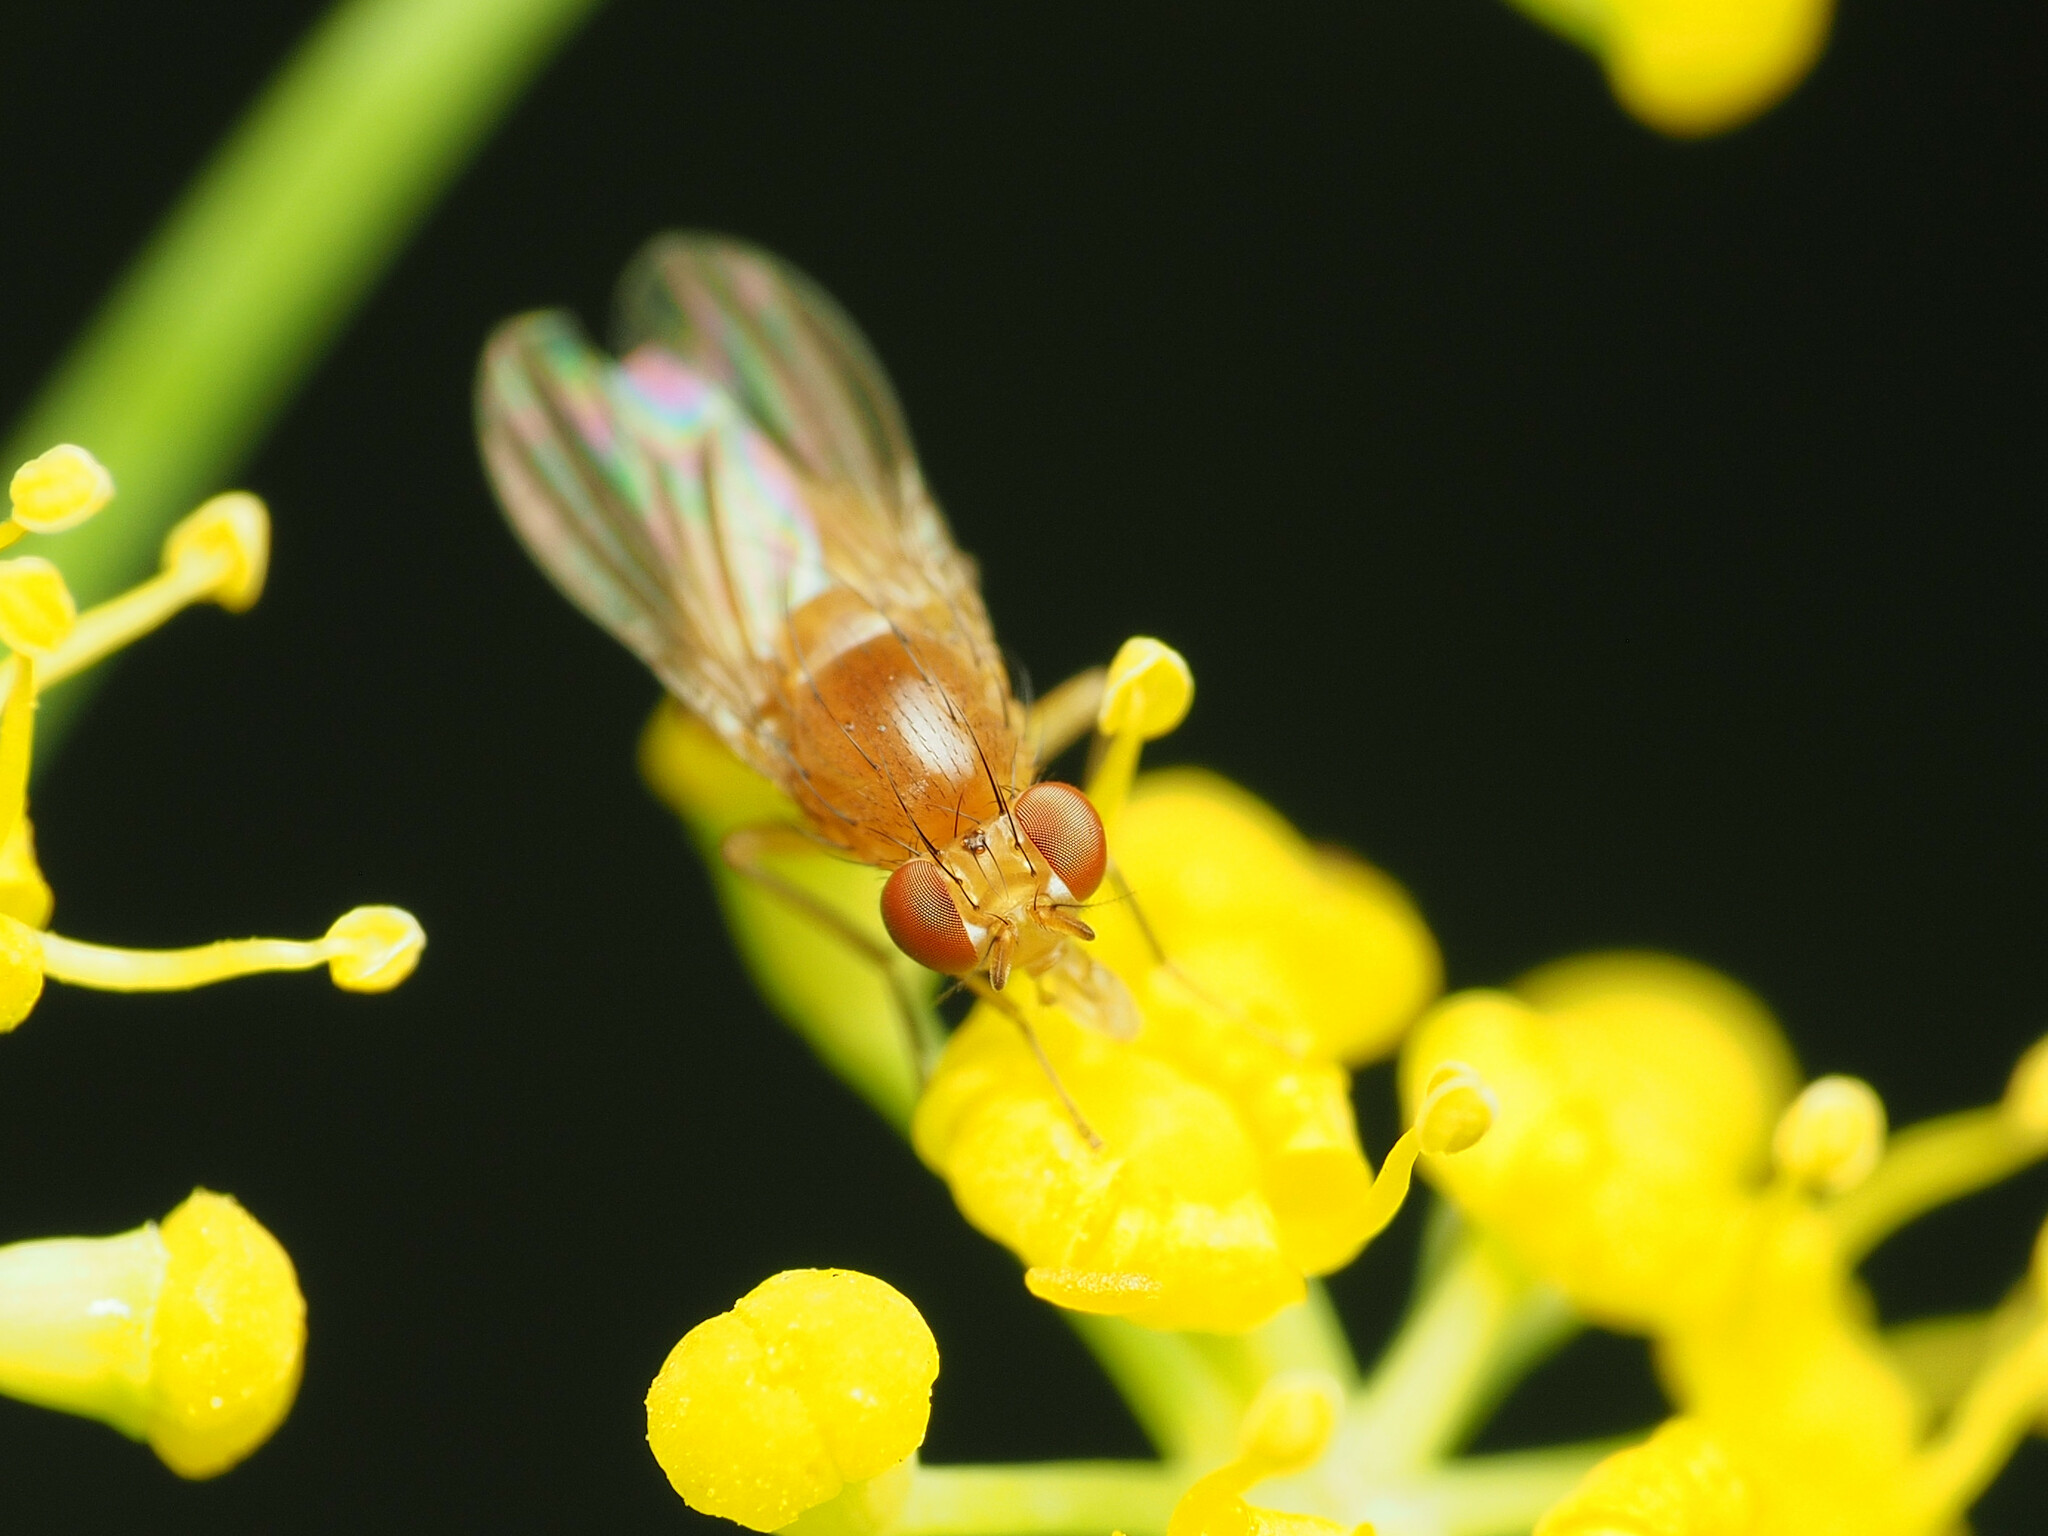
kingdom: Animalia
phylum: Arthropoda
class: Insecta
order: Diptera
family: Lauxaniidae
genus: Homoneura
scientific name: Homoneura unguiculata
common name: Beach fly
